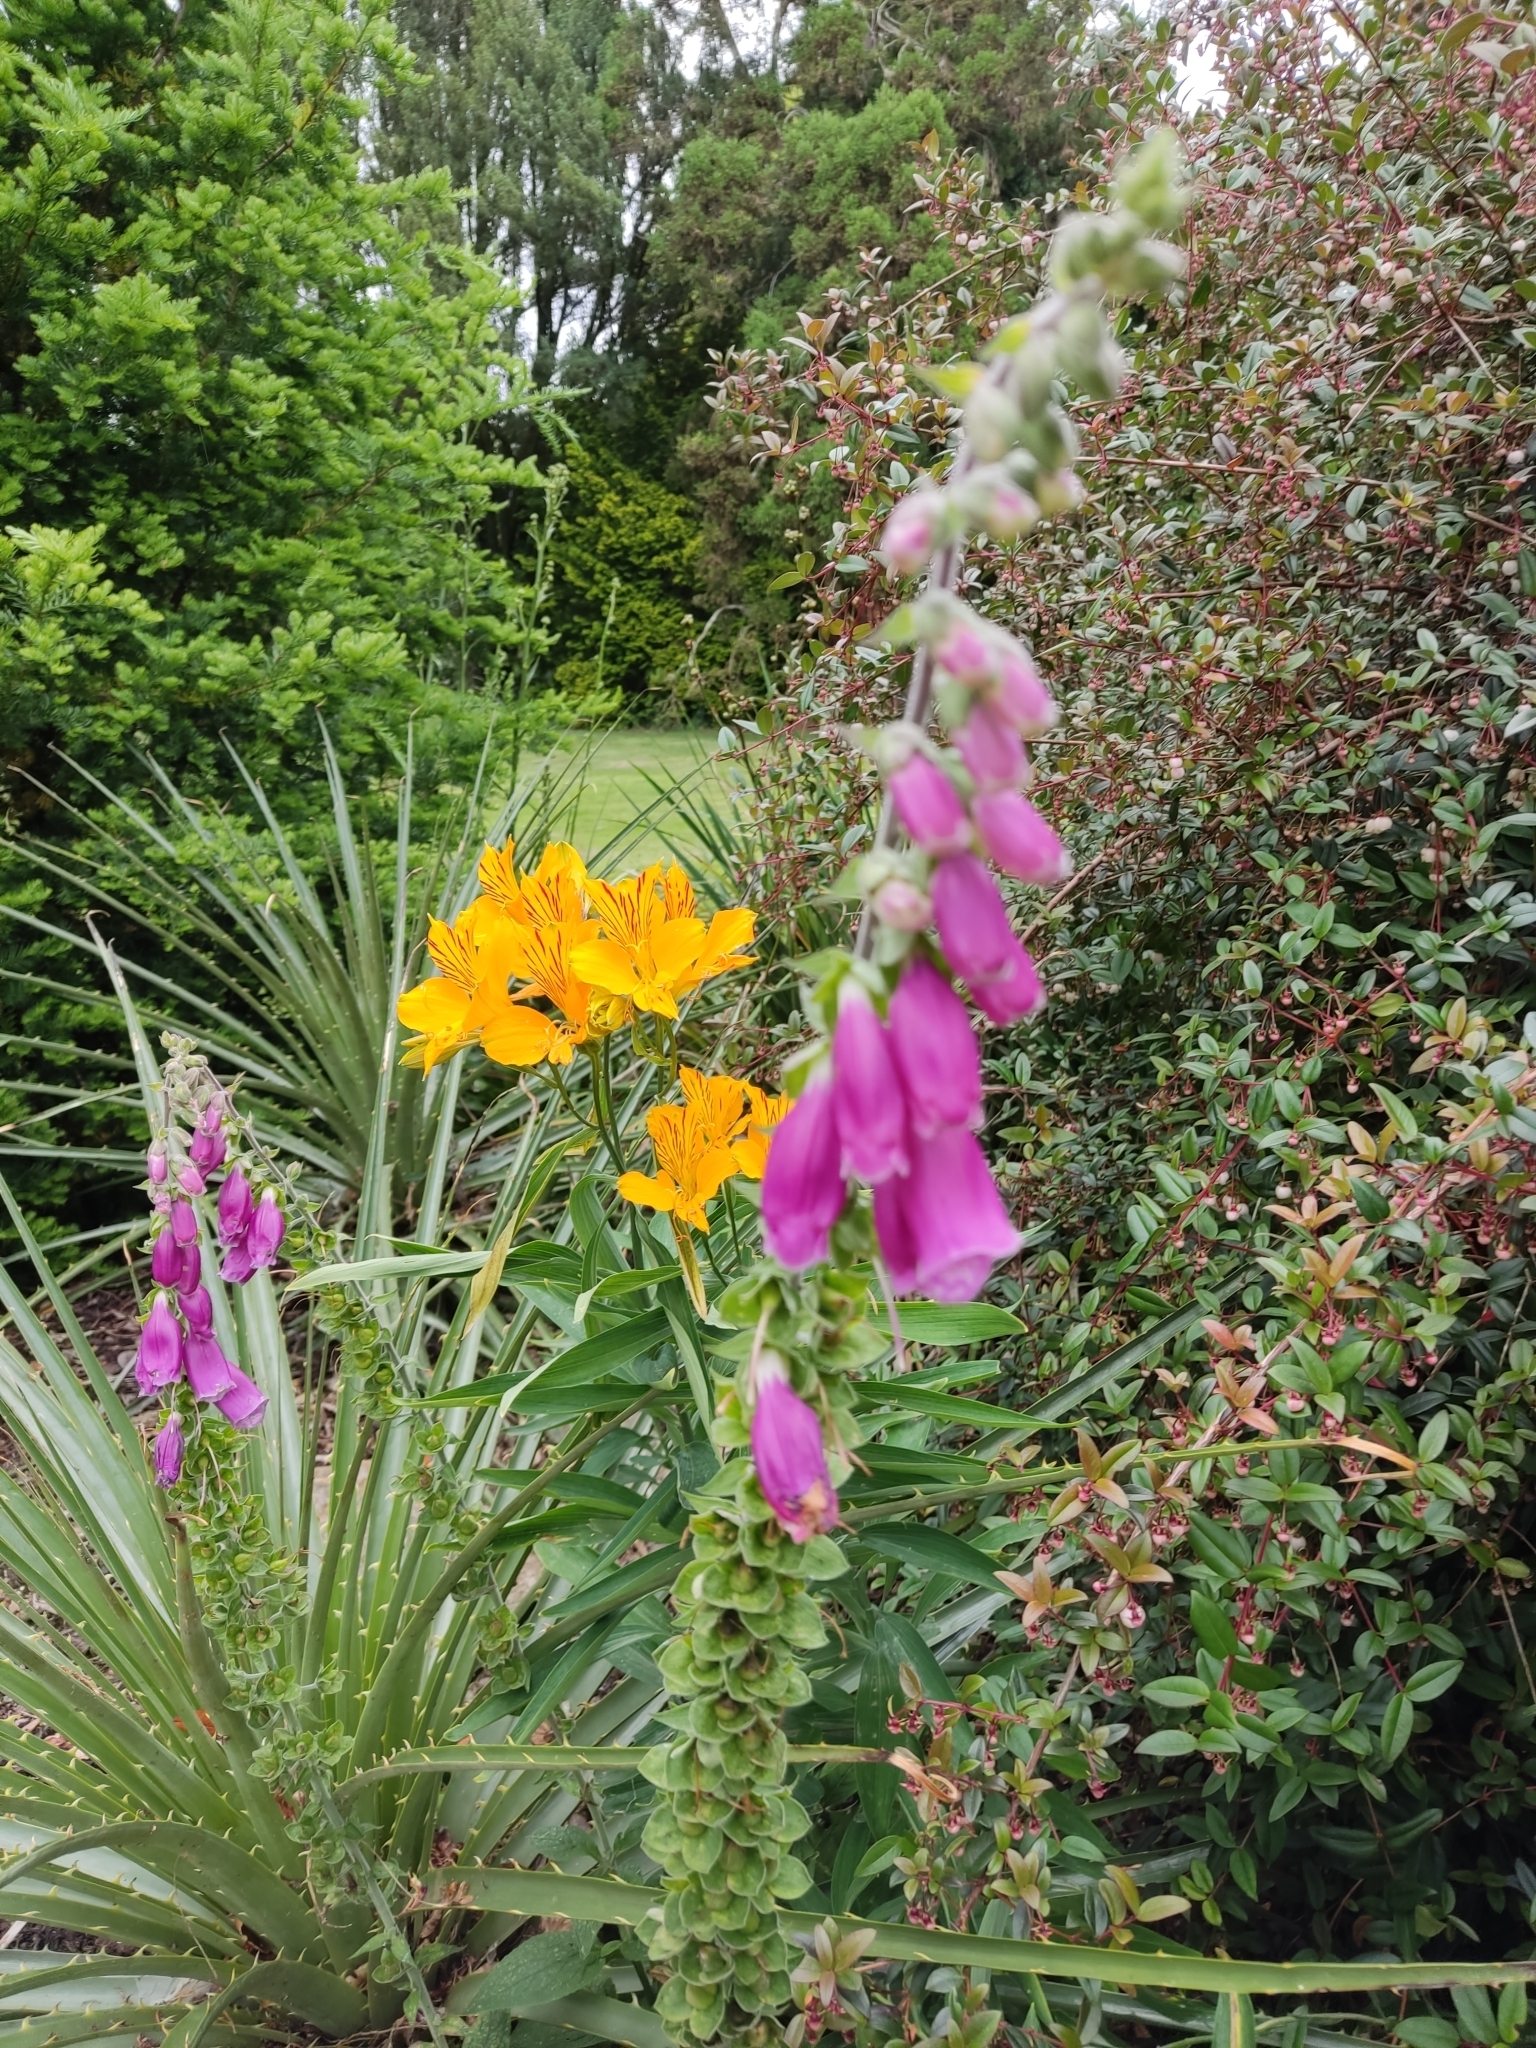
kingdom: Plantae
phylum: Tracheophyta
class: Magnoliopsida
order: Lamiales
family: Plantaginaceae
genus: Digitalis
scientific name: Digitalis purpurea
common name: Foxglove
